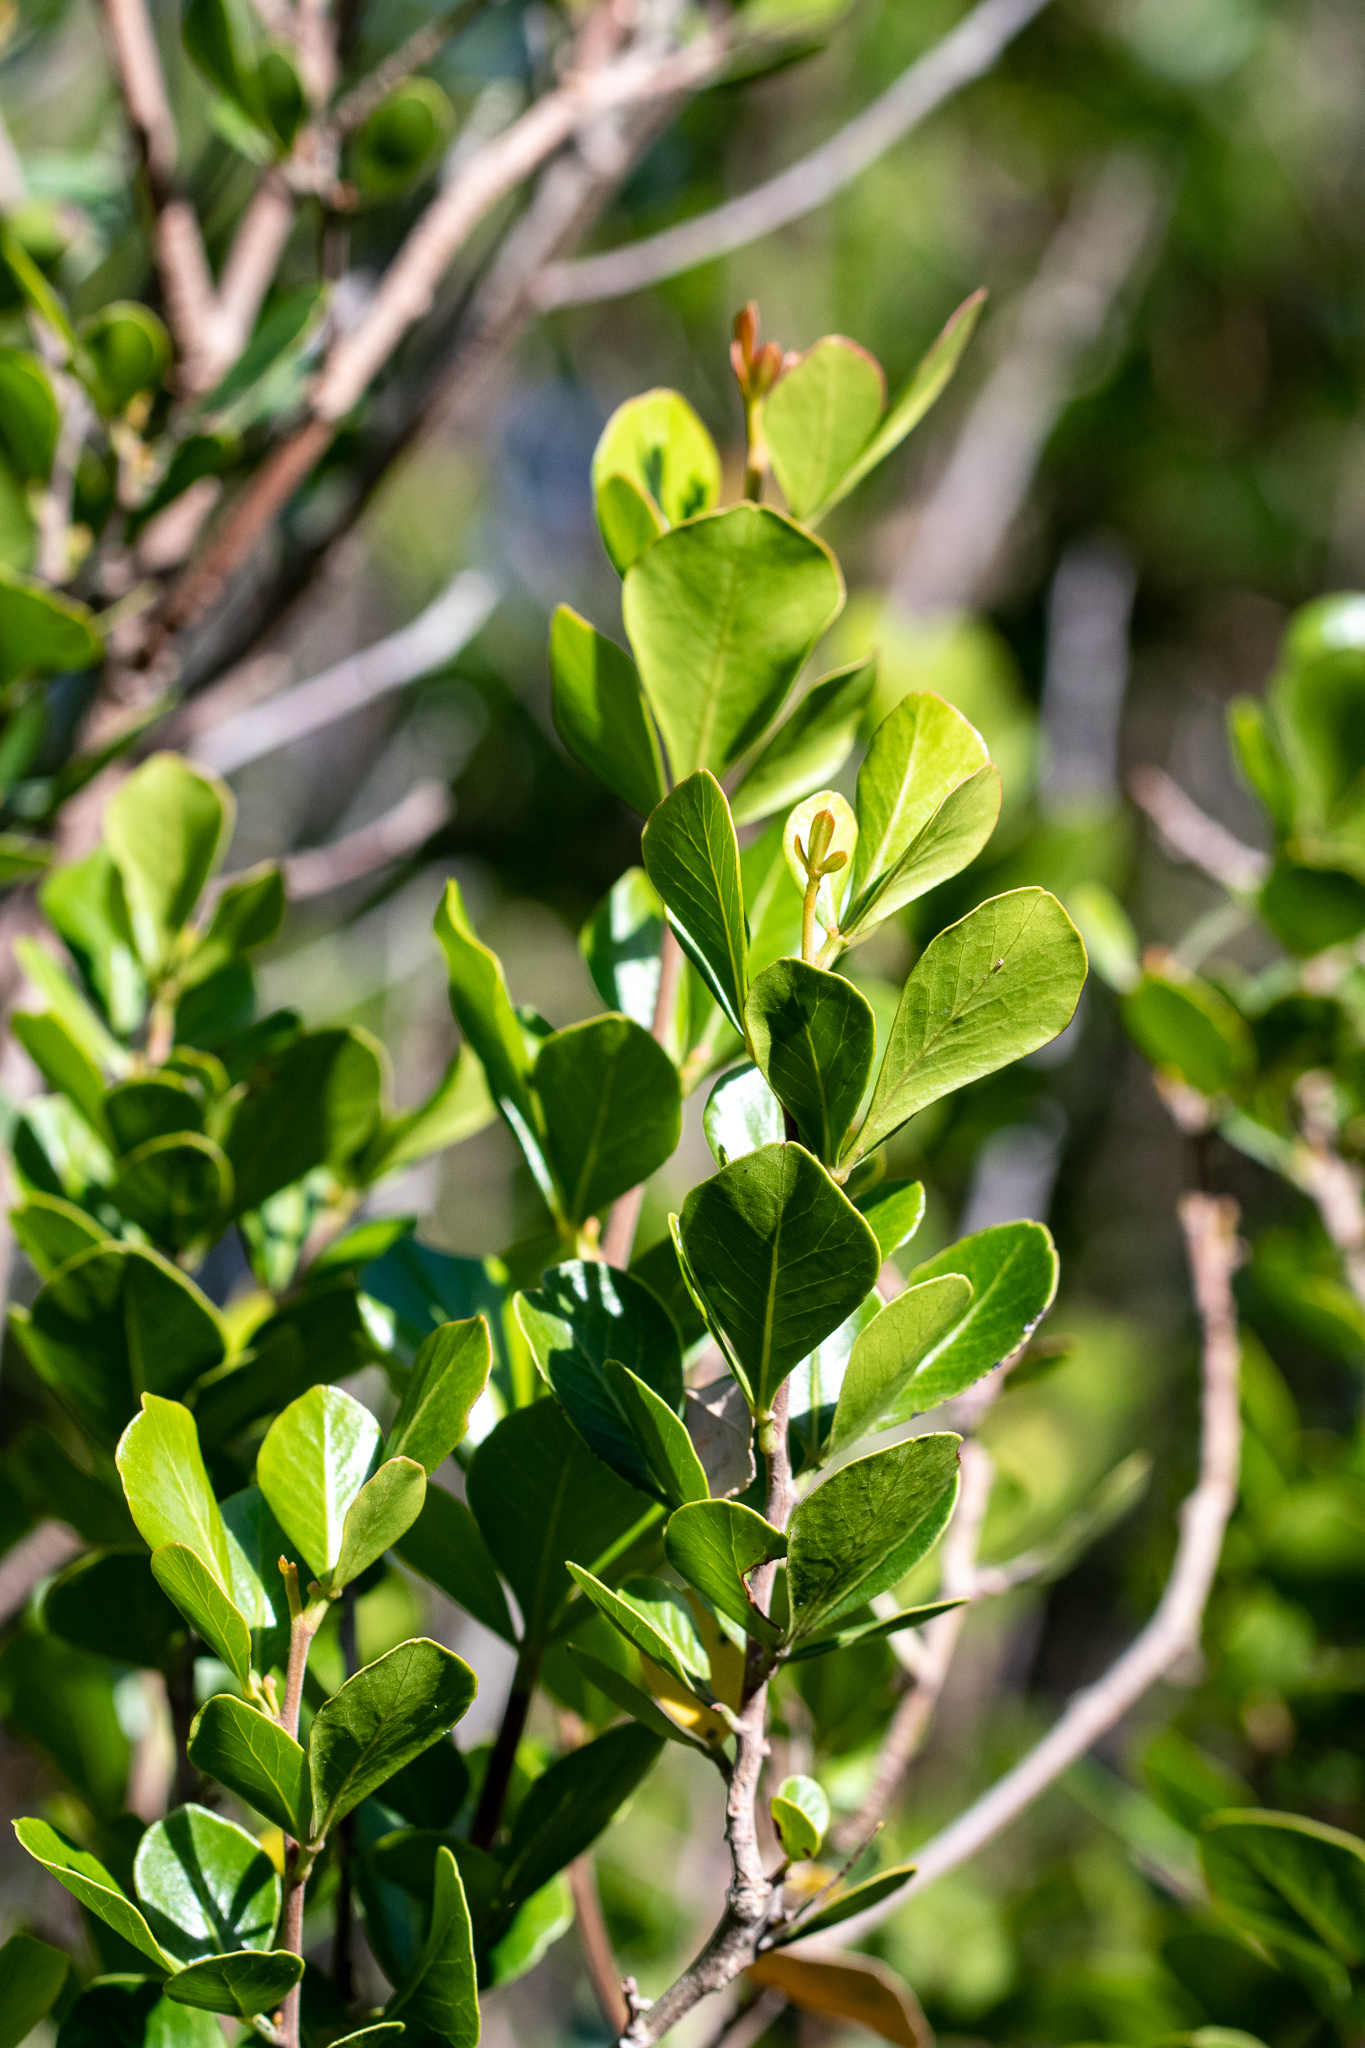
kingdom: Plantae
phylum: Tracheophyta
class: Magnoliopsida
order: Sapindales
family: Anacardiaceae
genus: Searsia
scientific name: Searsia lucida
